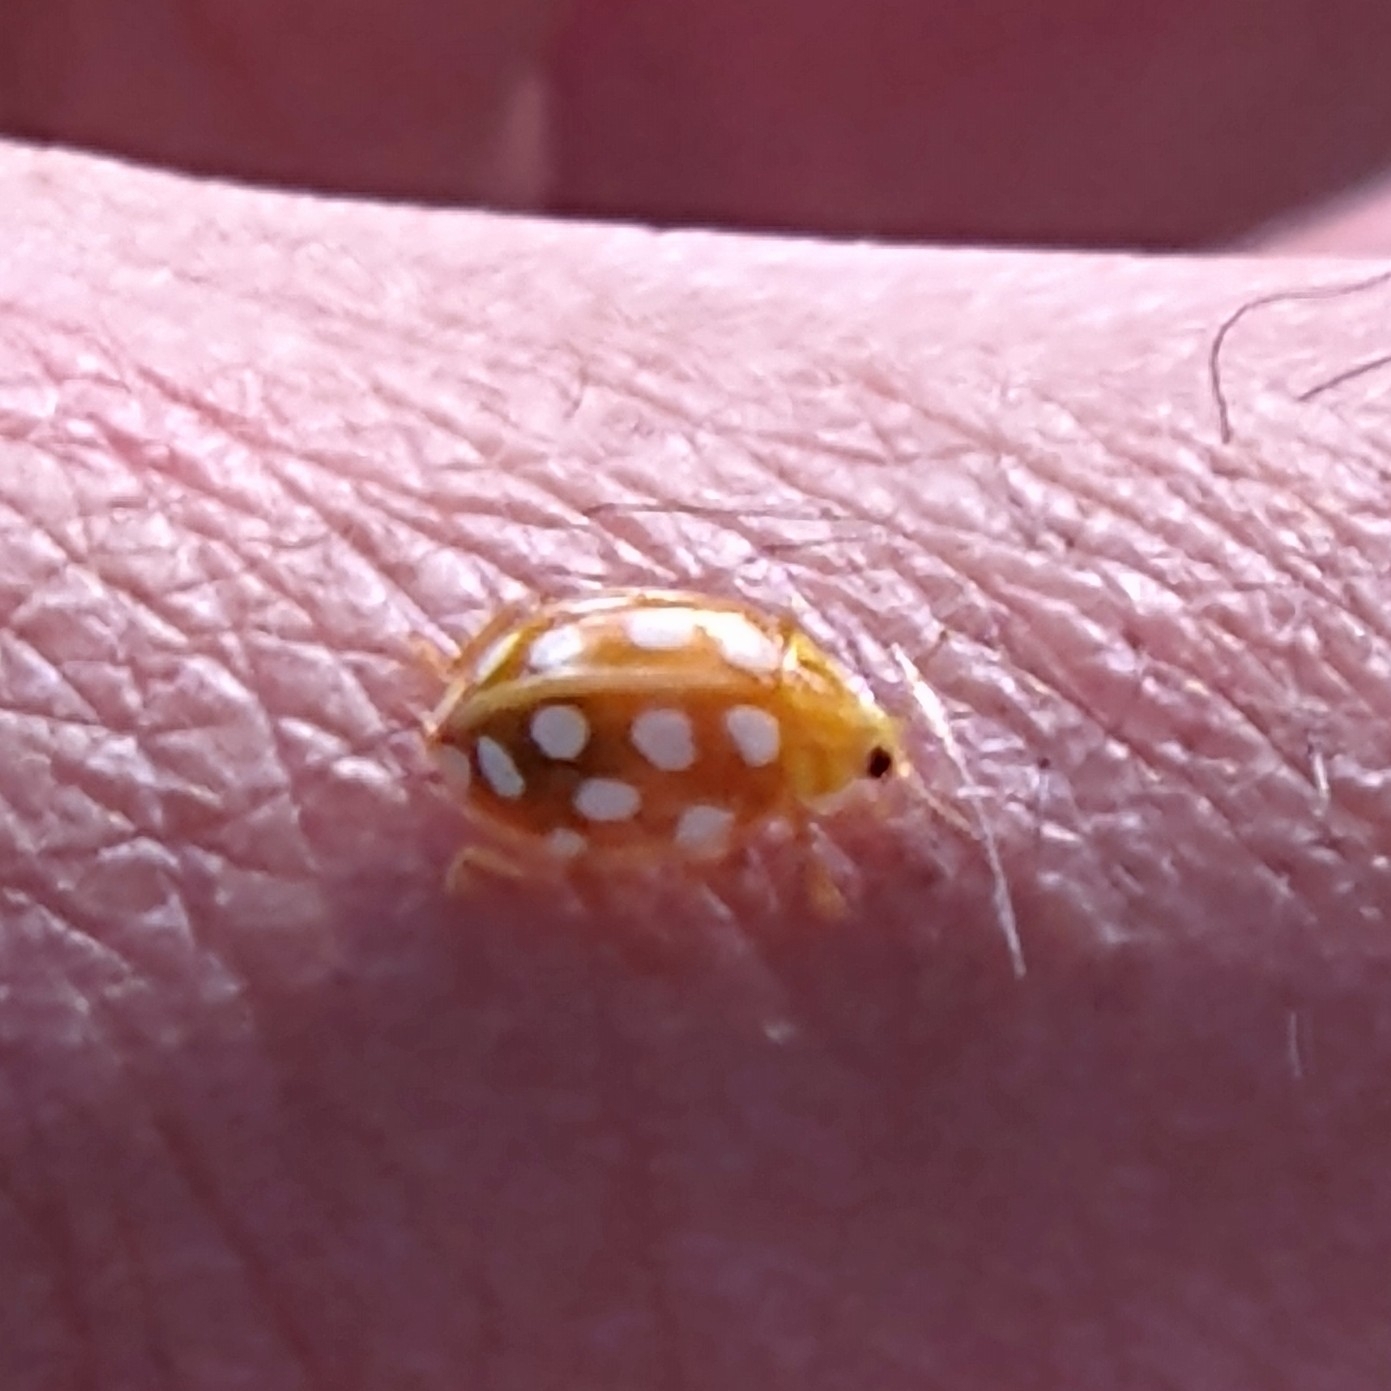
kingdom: Animalia
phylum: Arthropoda
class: Insecta
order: Coleoptera
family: Coccinellidae
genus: Halyzia
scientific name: Halyzia sedecimguttata
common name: Orange ladybird
